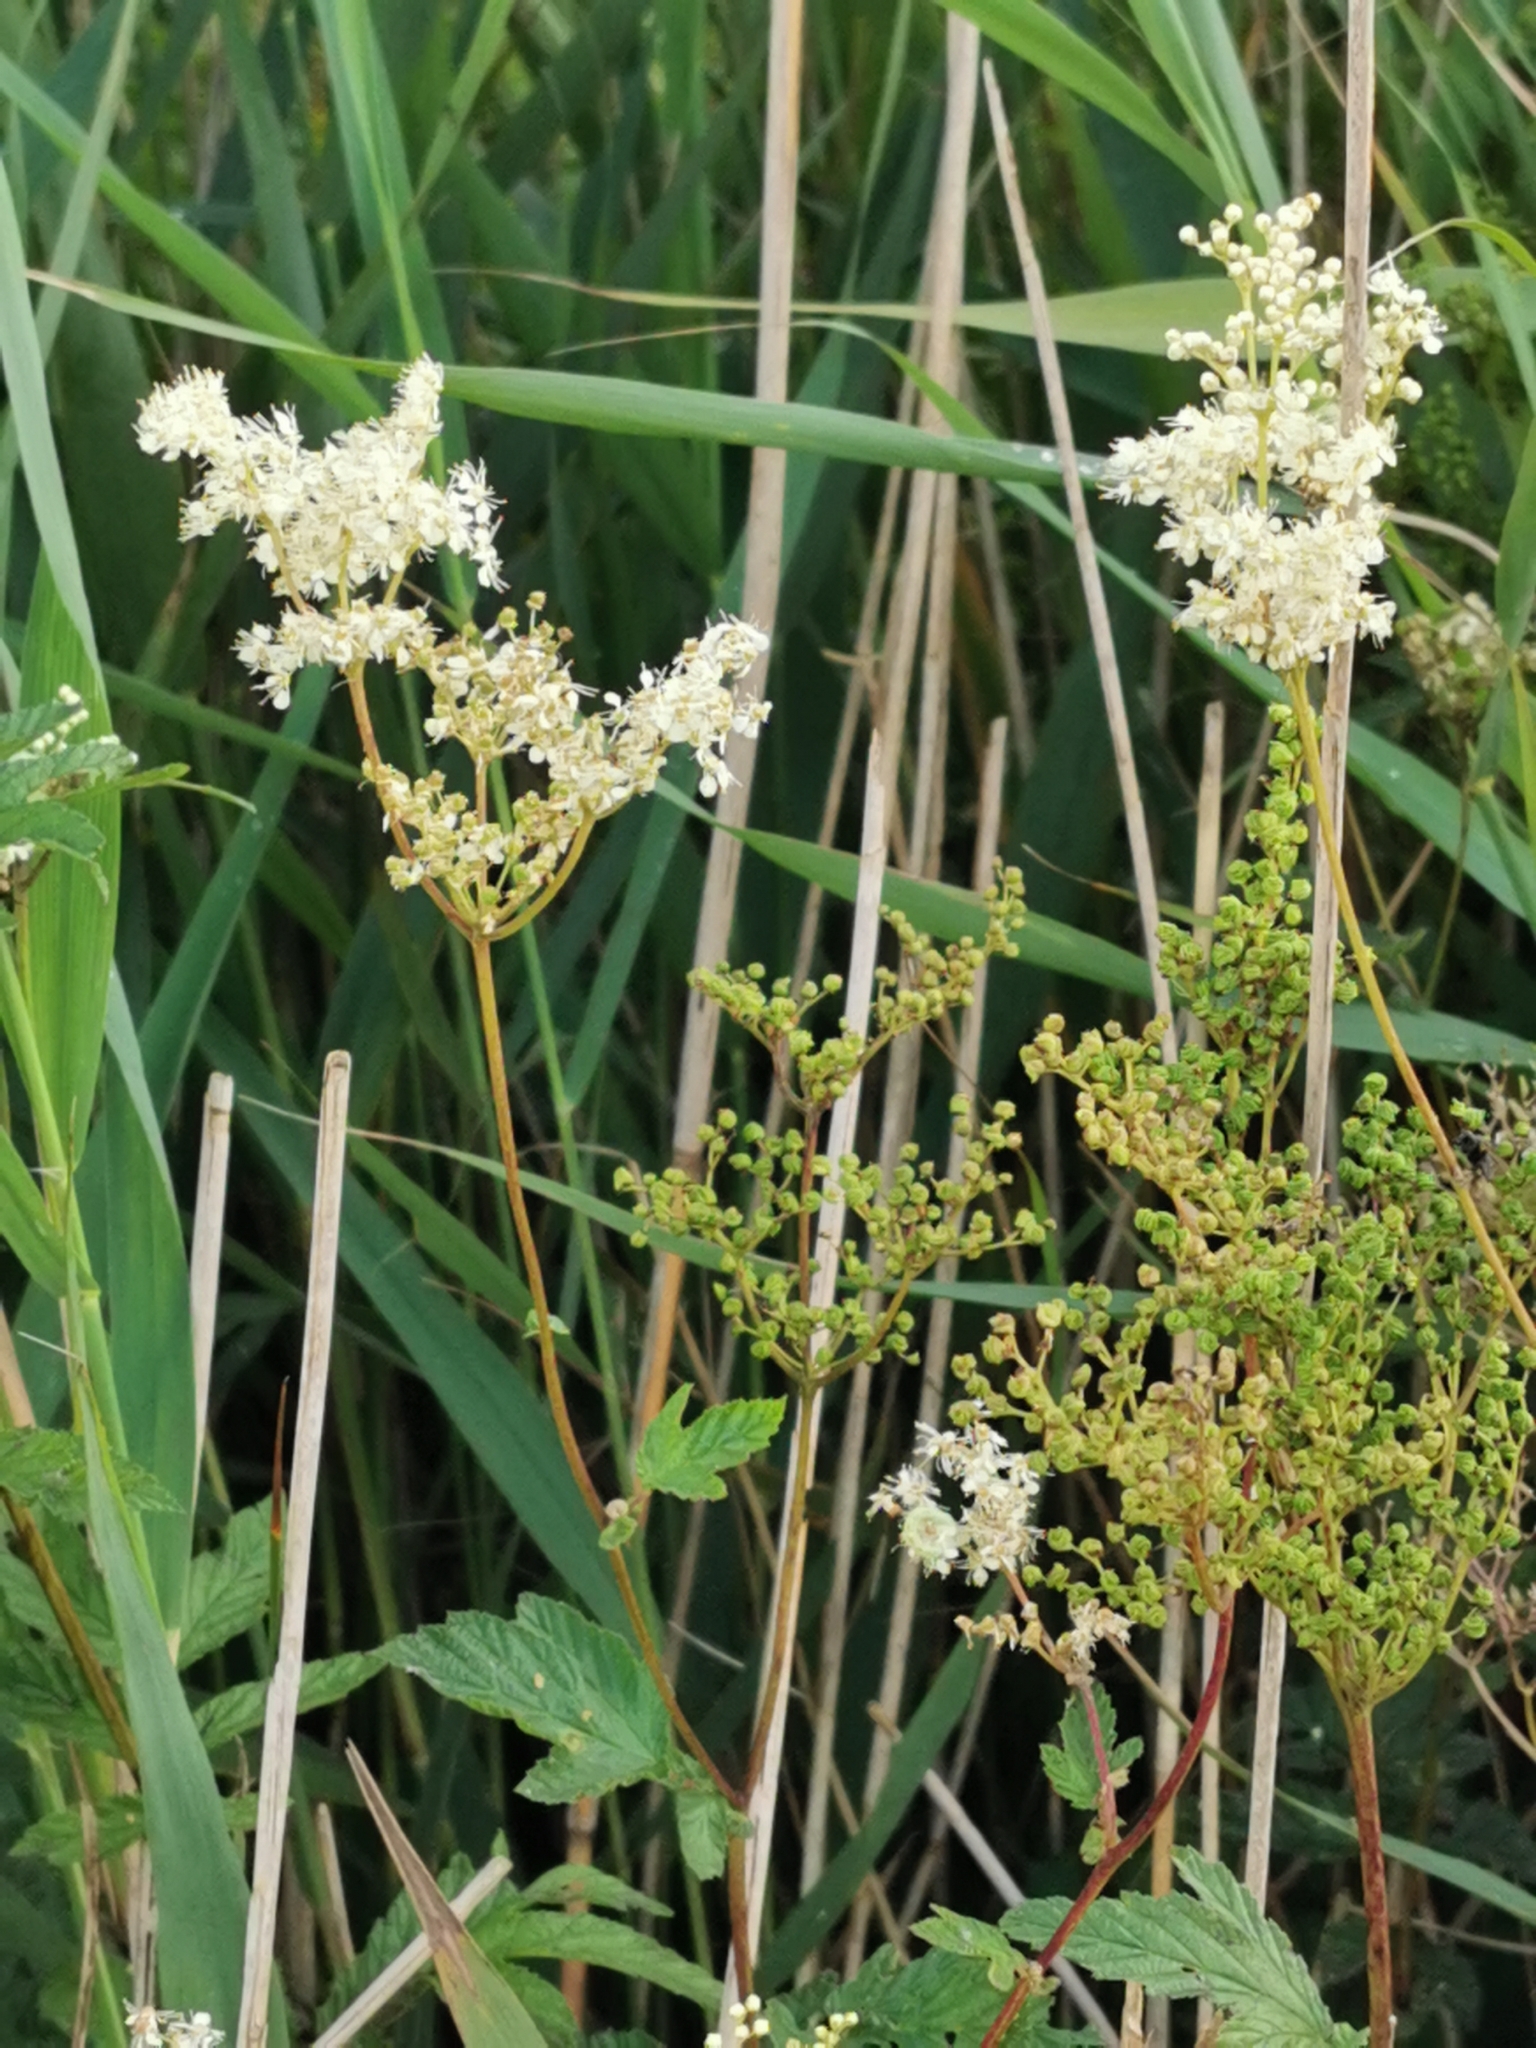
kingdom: Plantae
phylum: Tracheophyta
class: Magnoliopsida
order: Rosales
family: Rosaceae
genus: Filipendula
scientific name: Filipendula ulmaria
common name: Meadowsweet
